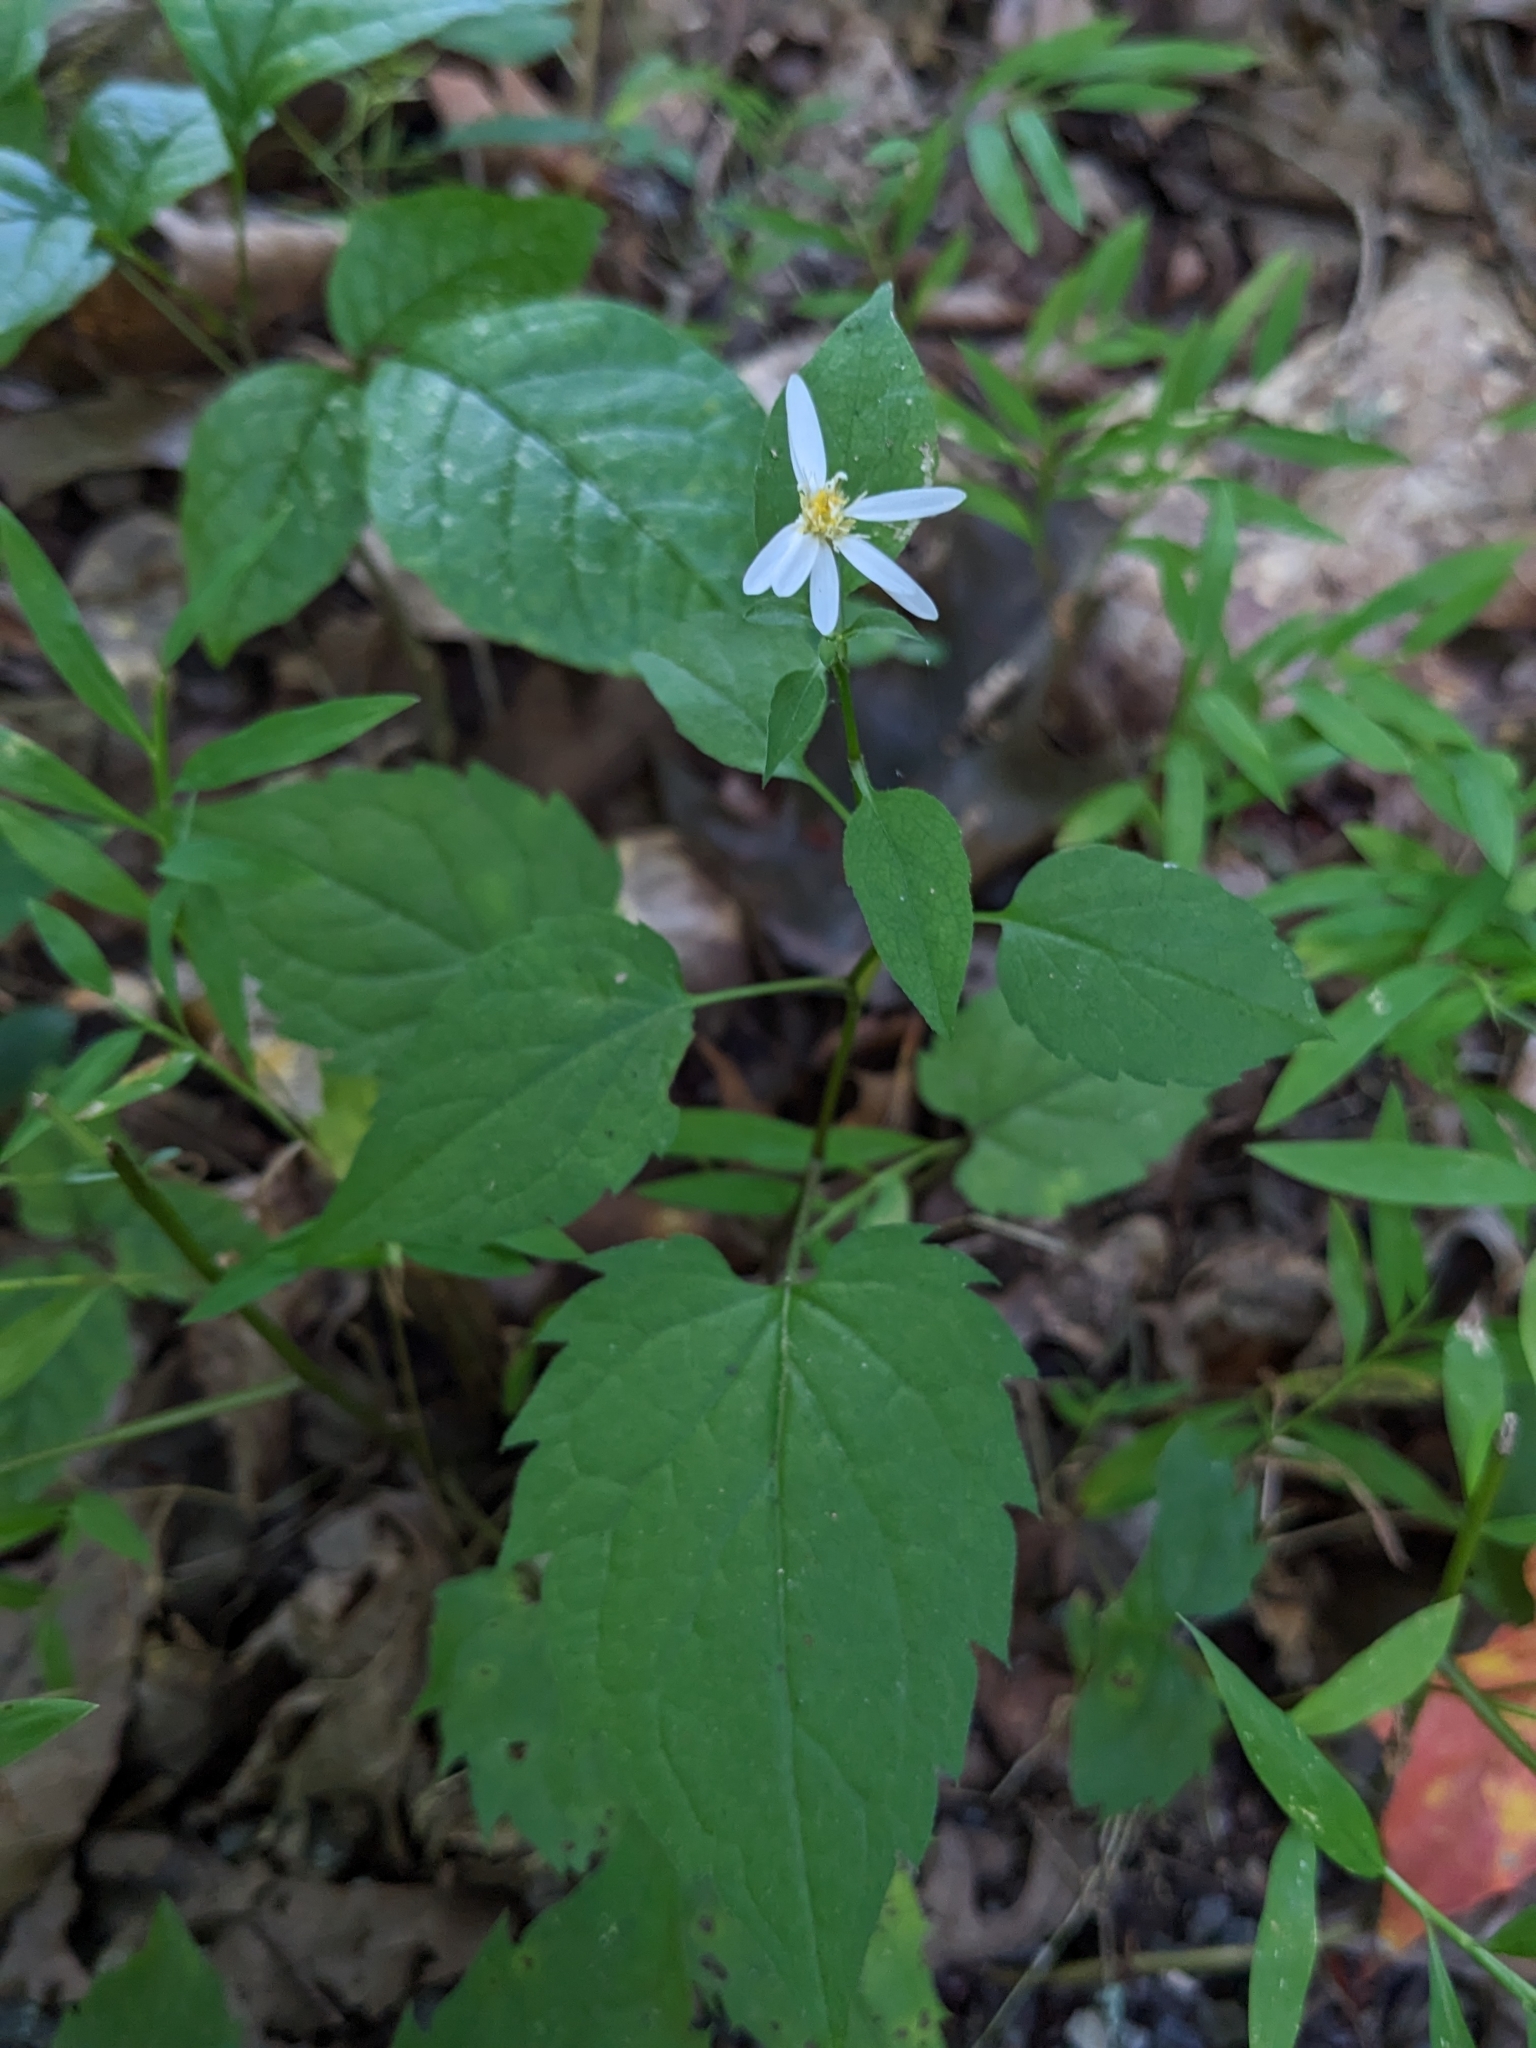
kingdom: Plantae
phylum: Tracheophyta
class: Magnoliopsida
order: Asterales
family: Asteraceae
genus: Eurybia
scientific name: Eurybia divaricata
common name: White wood aster
